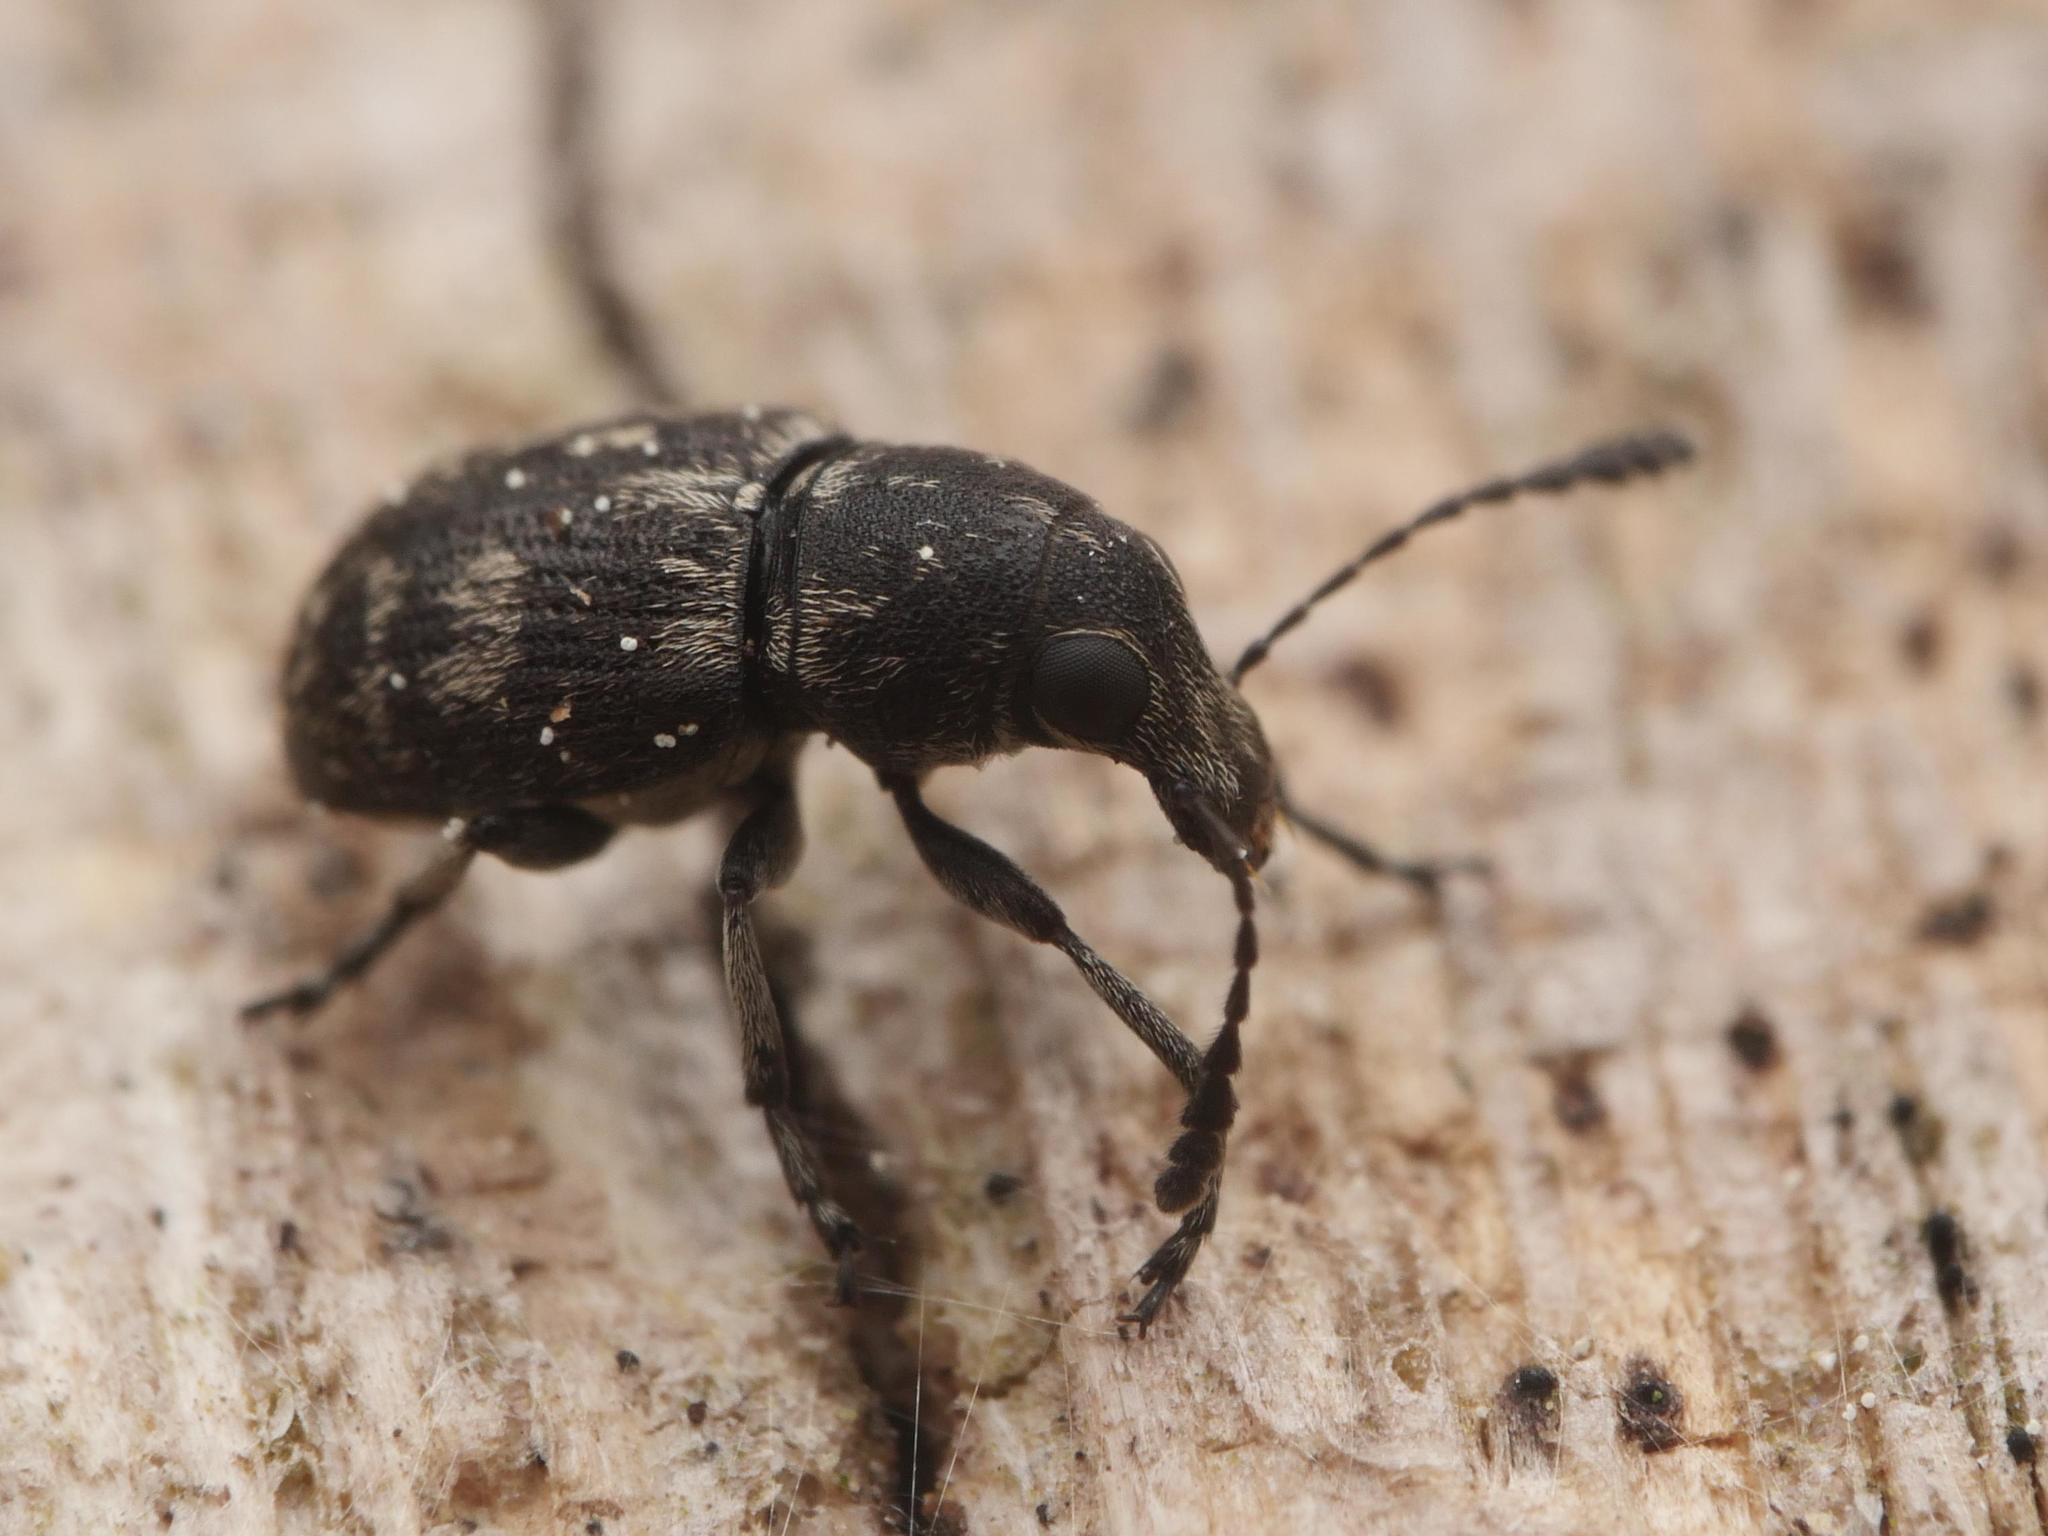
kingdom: Animalia
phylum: Arthropoda
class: Insecta
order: Coleoptera
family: Anthribidae
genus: Phaeochrotes
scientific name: Phaeochrotes pudens
